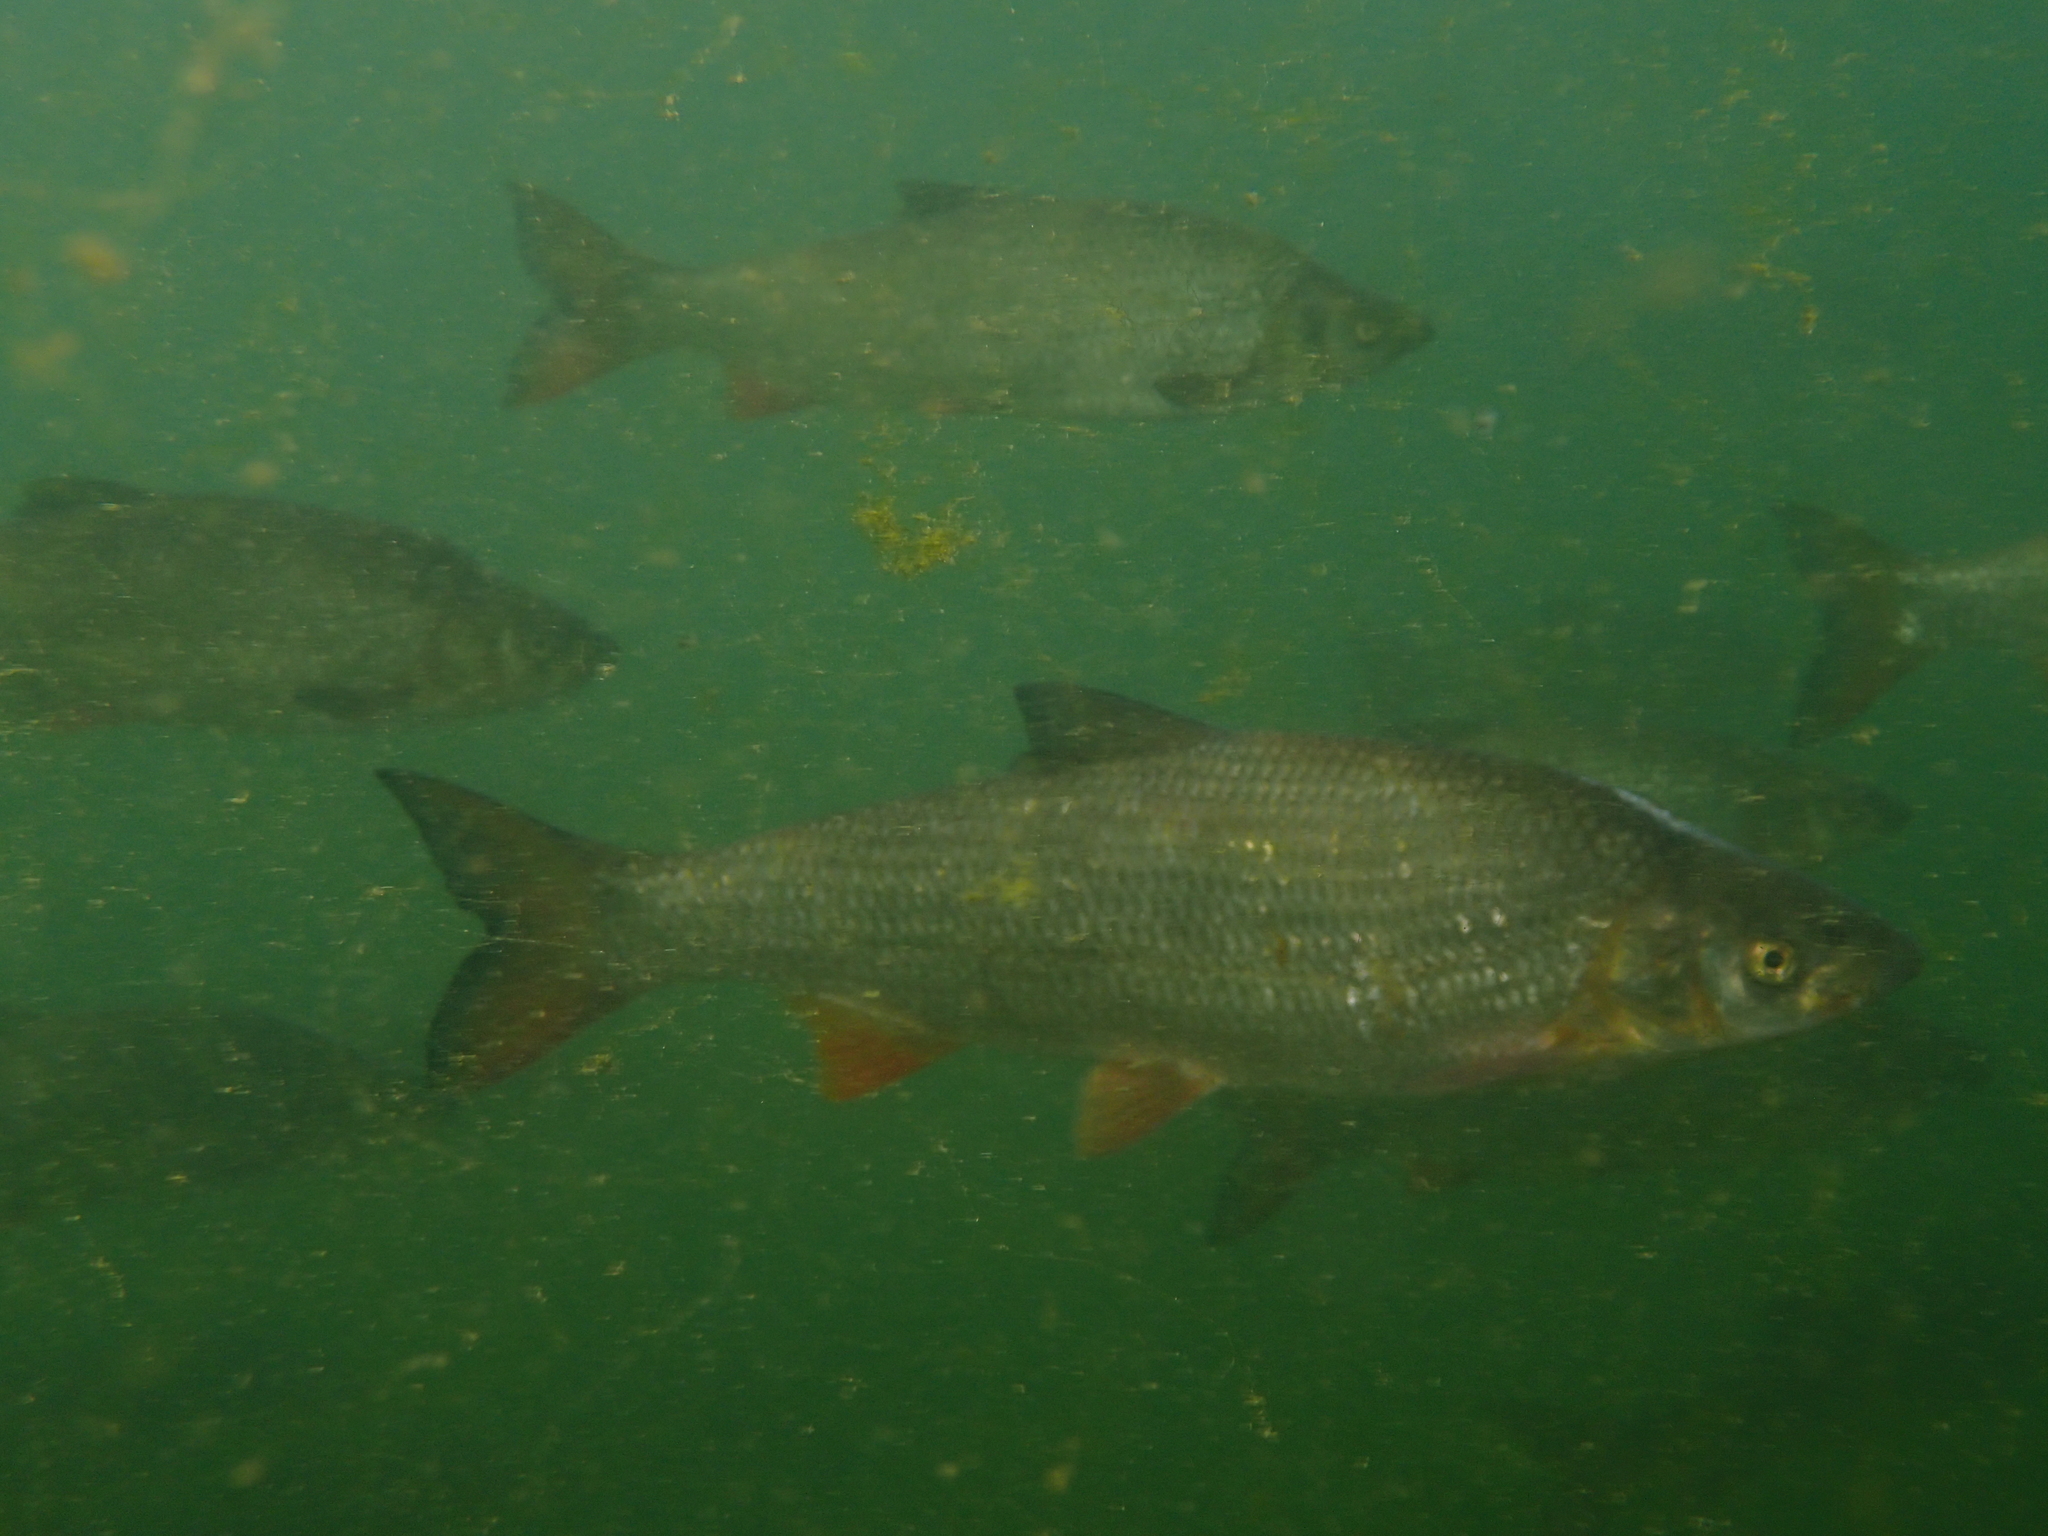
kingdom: Animalia
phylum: Chordata
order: Cypriniformes
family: Cyprinidae
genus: Chondrostoma
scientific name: Chondrostoma nasus
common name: Nase
